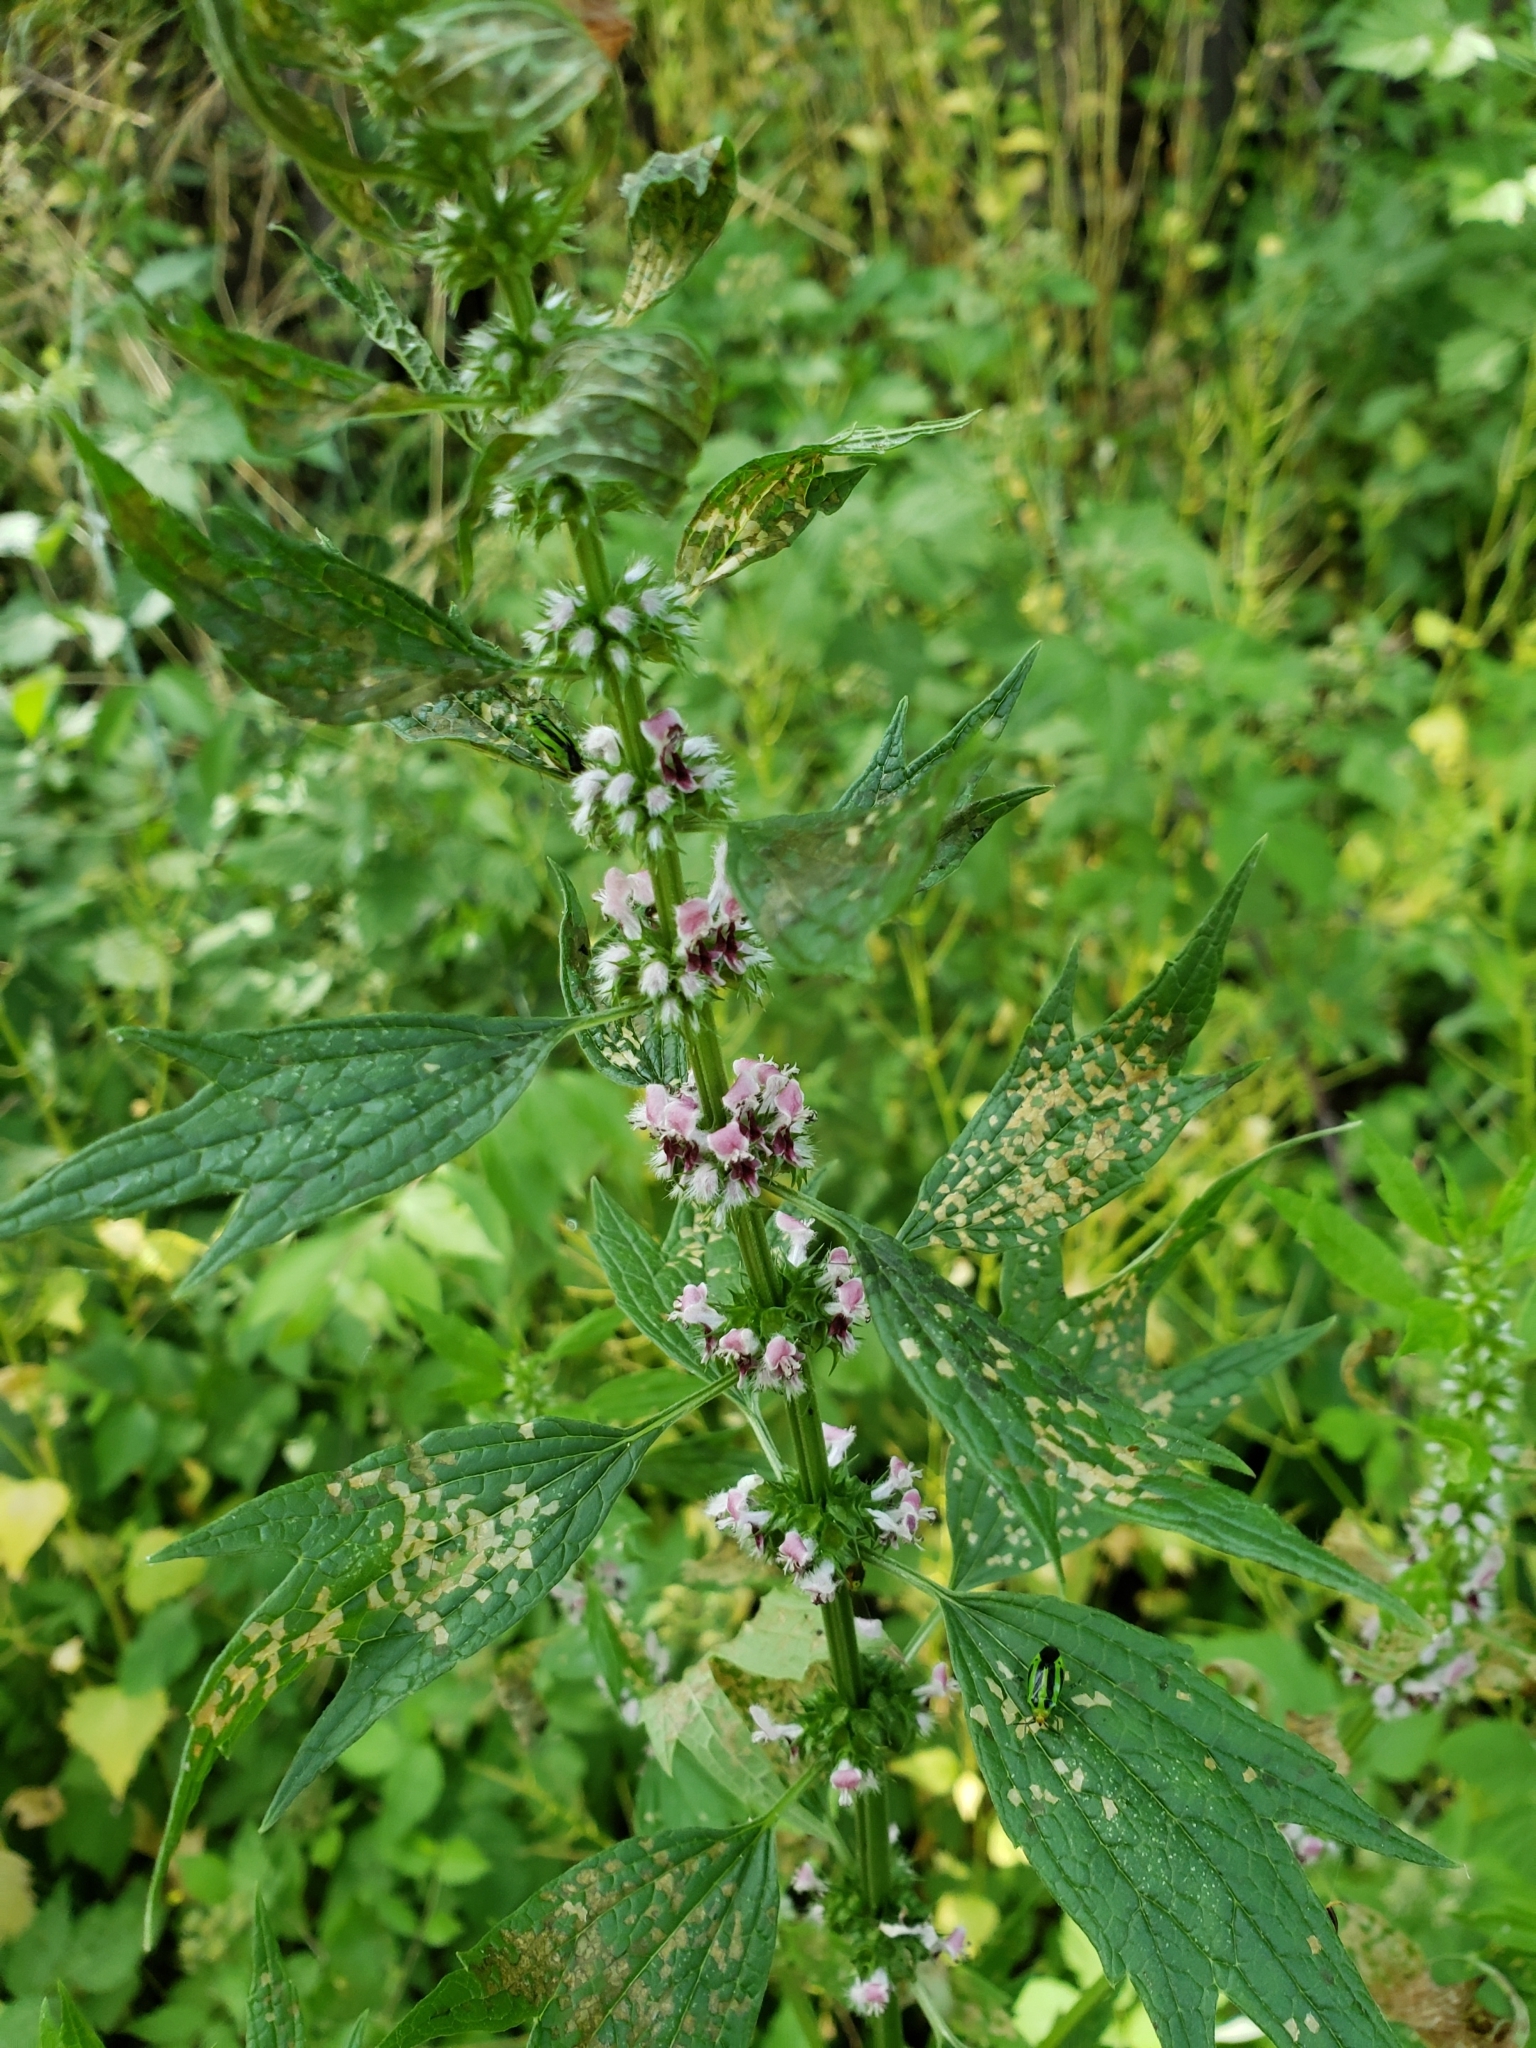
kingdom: Plantae
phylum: Tracheophyta
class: Magnoliopsida
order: Lamiales
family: Lamiaceae
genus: Leonurus
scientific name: Leonurus cardiaca
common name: Motherwort
